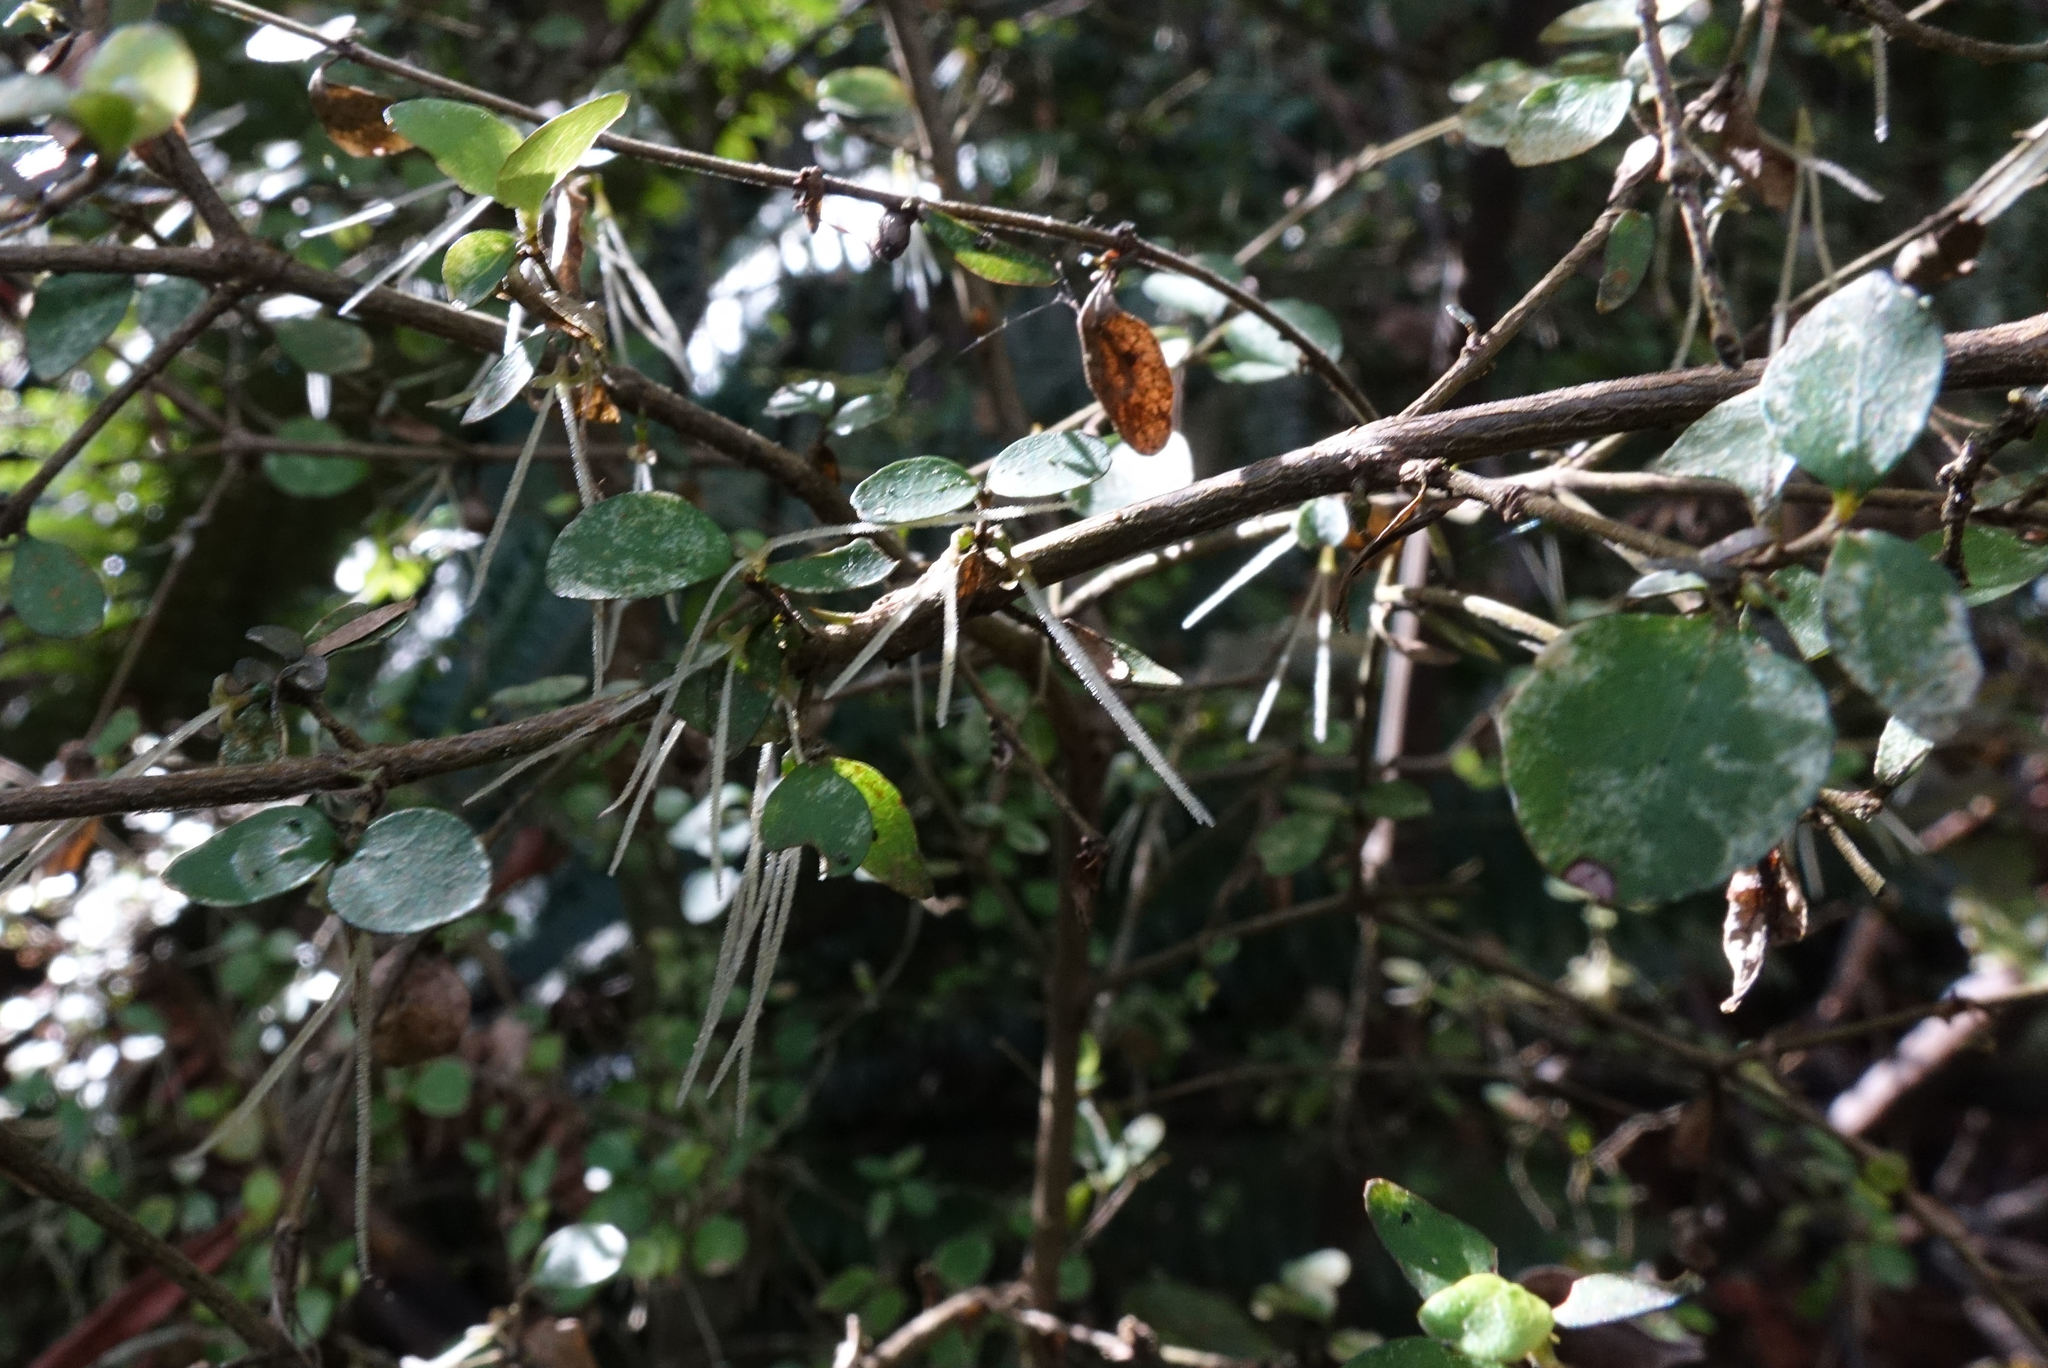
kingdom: Plantae
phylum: Tracheophyta
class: Magnoliopsida
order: Gentianales
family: Rubiaceae
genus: Coprosma
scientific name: Coprosma rhamnoides
